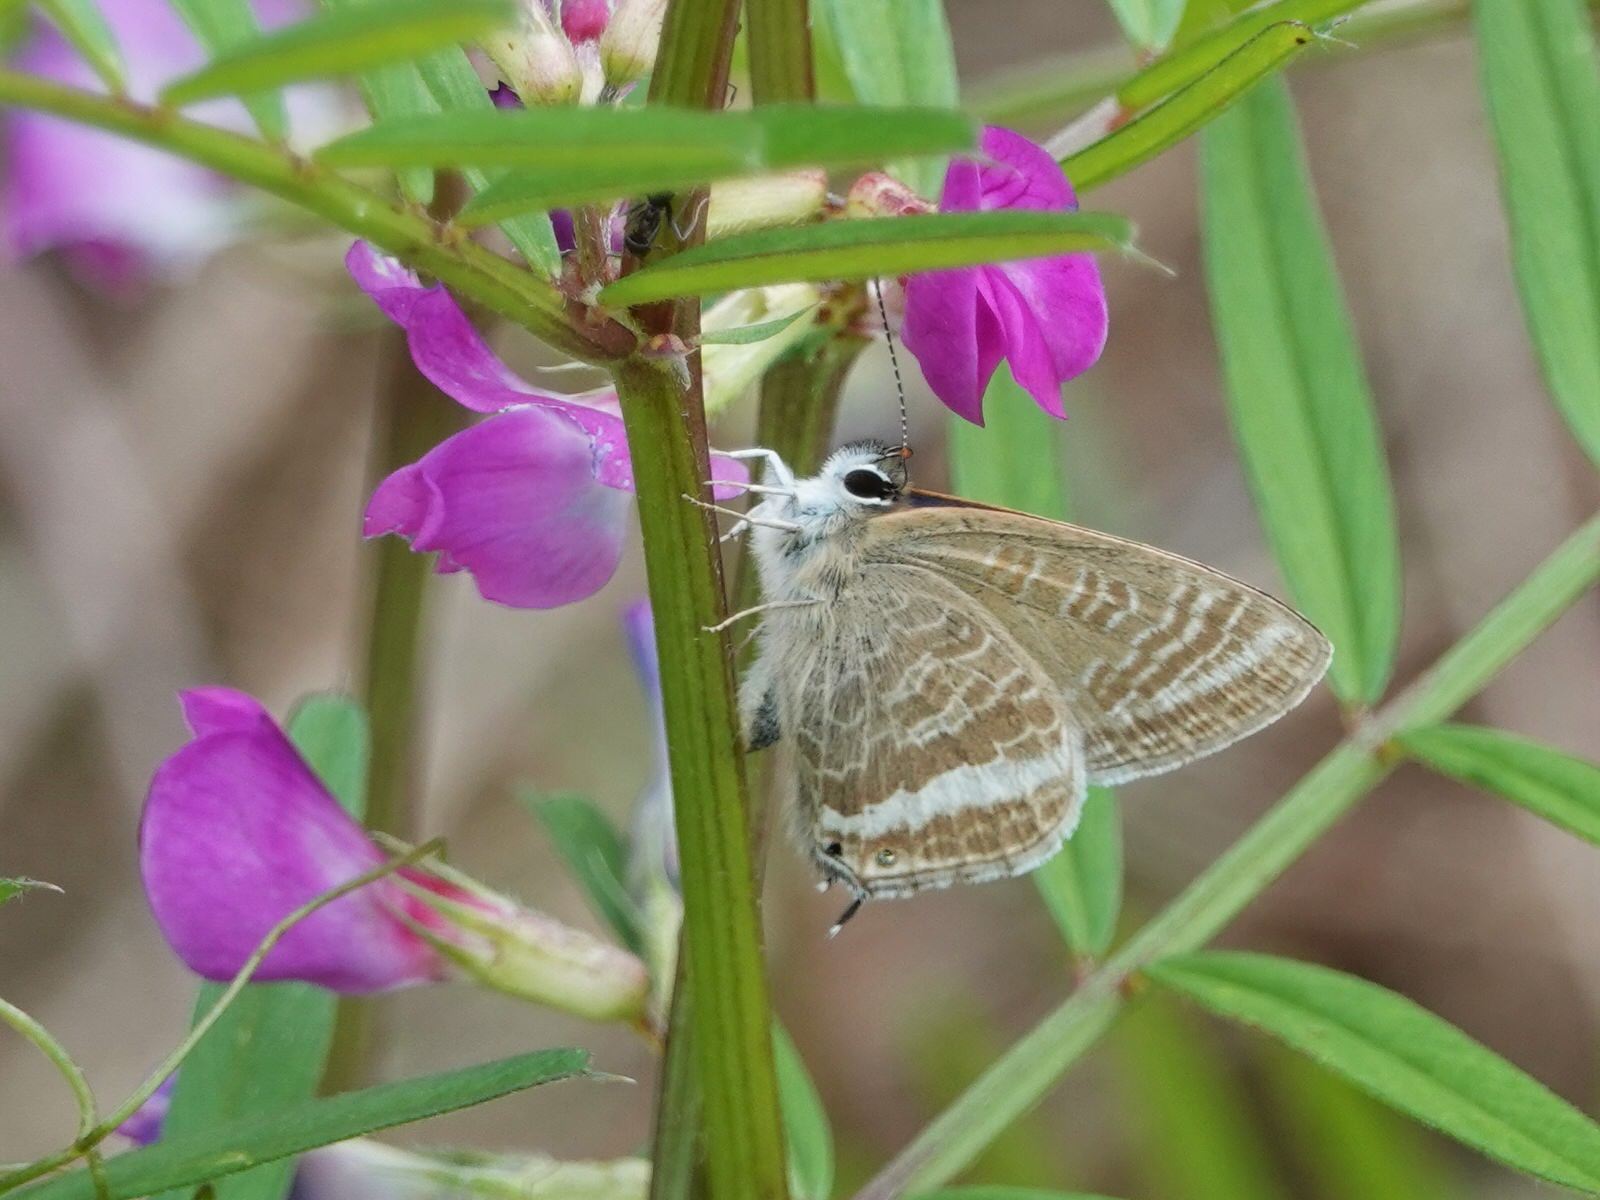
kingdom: Animalia
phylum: Arthropoda
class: Insecta
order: Lepidoptera
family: Lycaenidae
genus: Lampides
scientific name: Lampides boeticus
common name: Long-tailed blue
